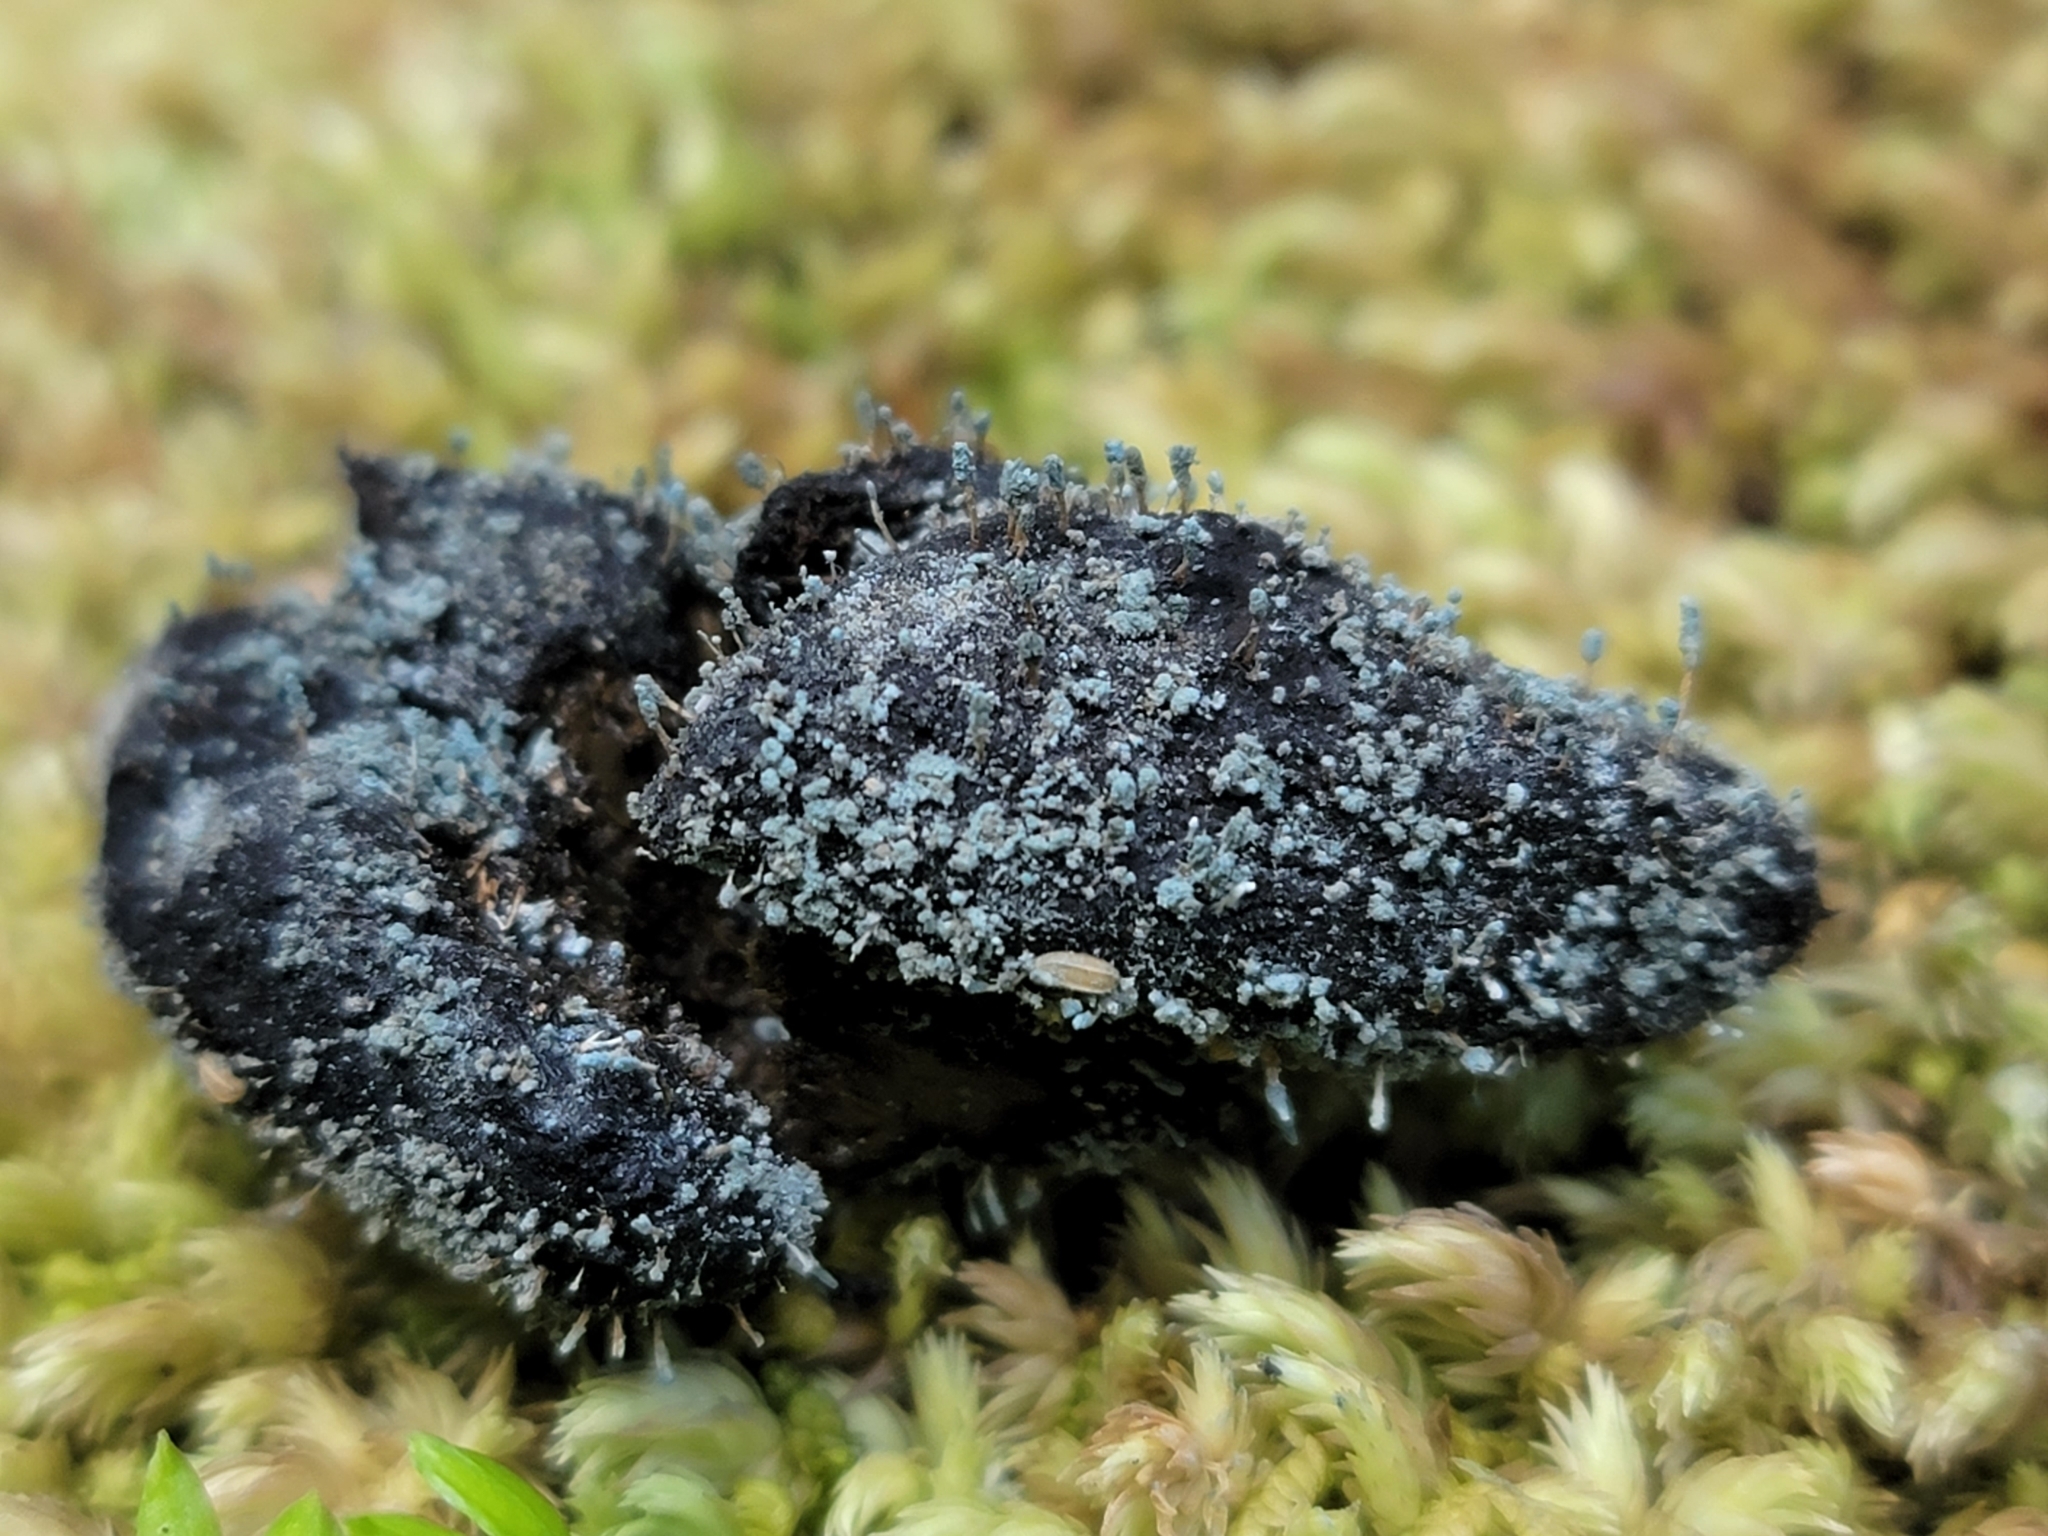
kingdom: Fungi
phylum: Ascomycota
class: Eurotiomycetes
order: Eurotiales
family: Aspergillaceae
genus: Penicillium
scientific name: Penicillium vulpinum
